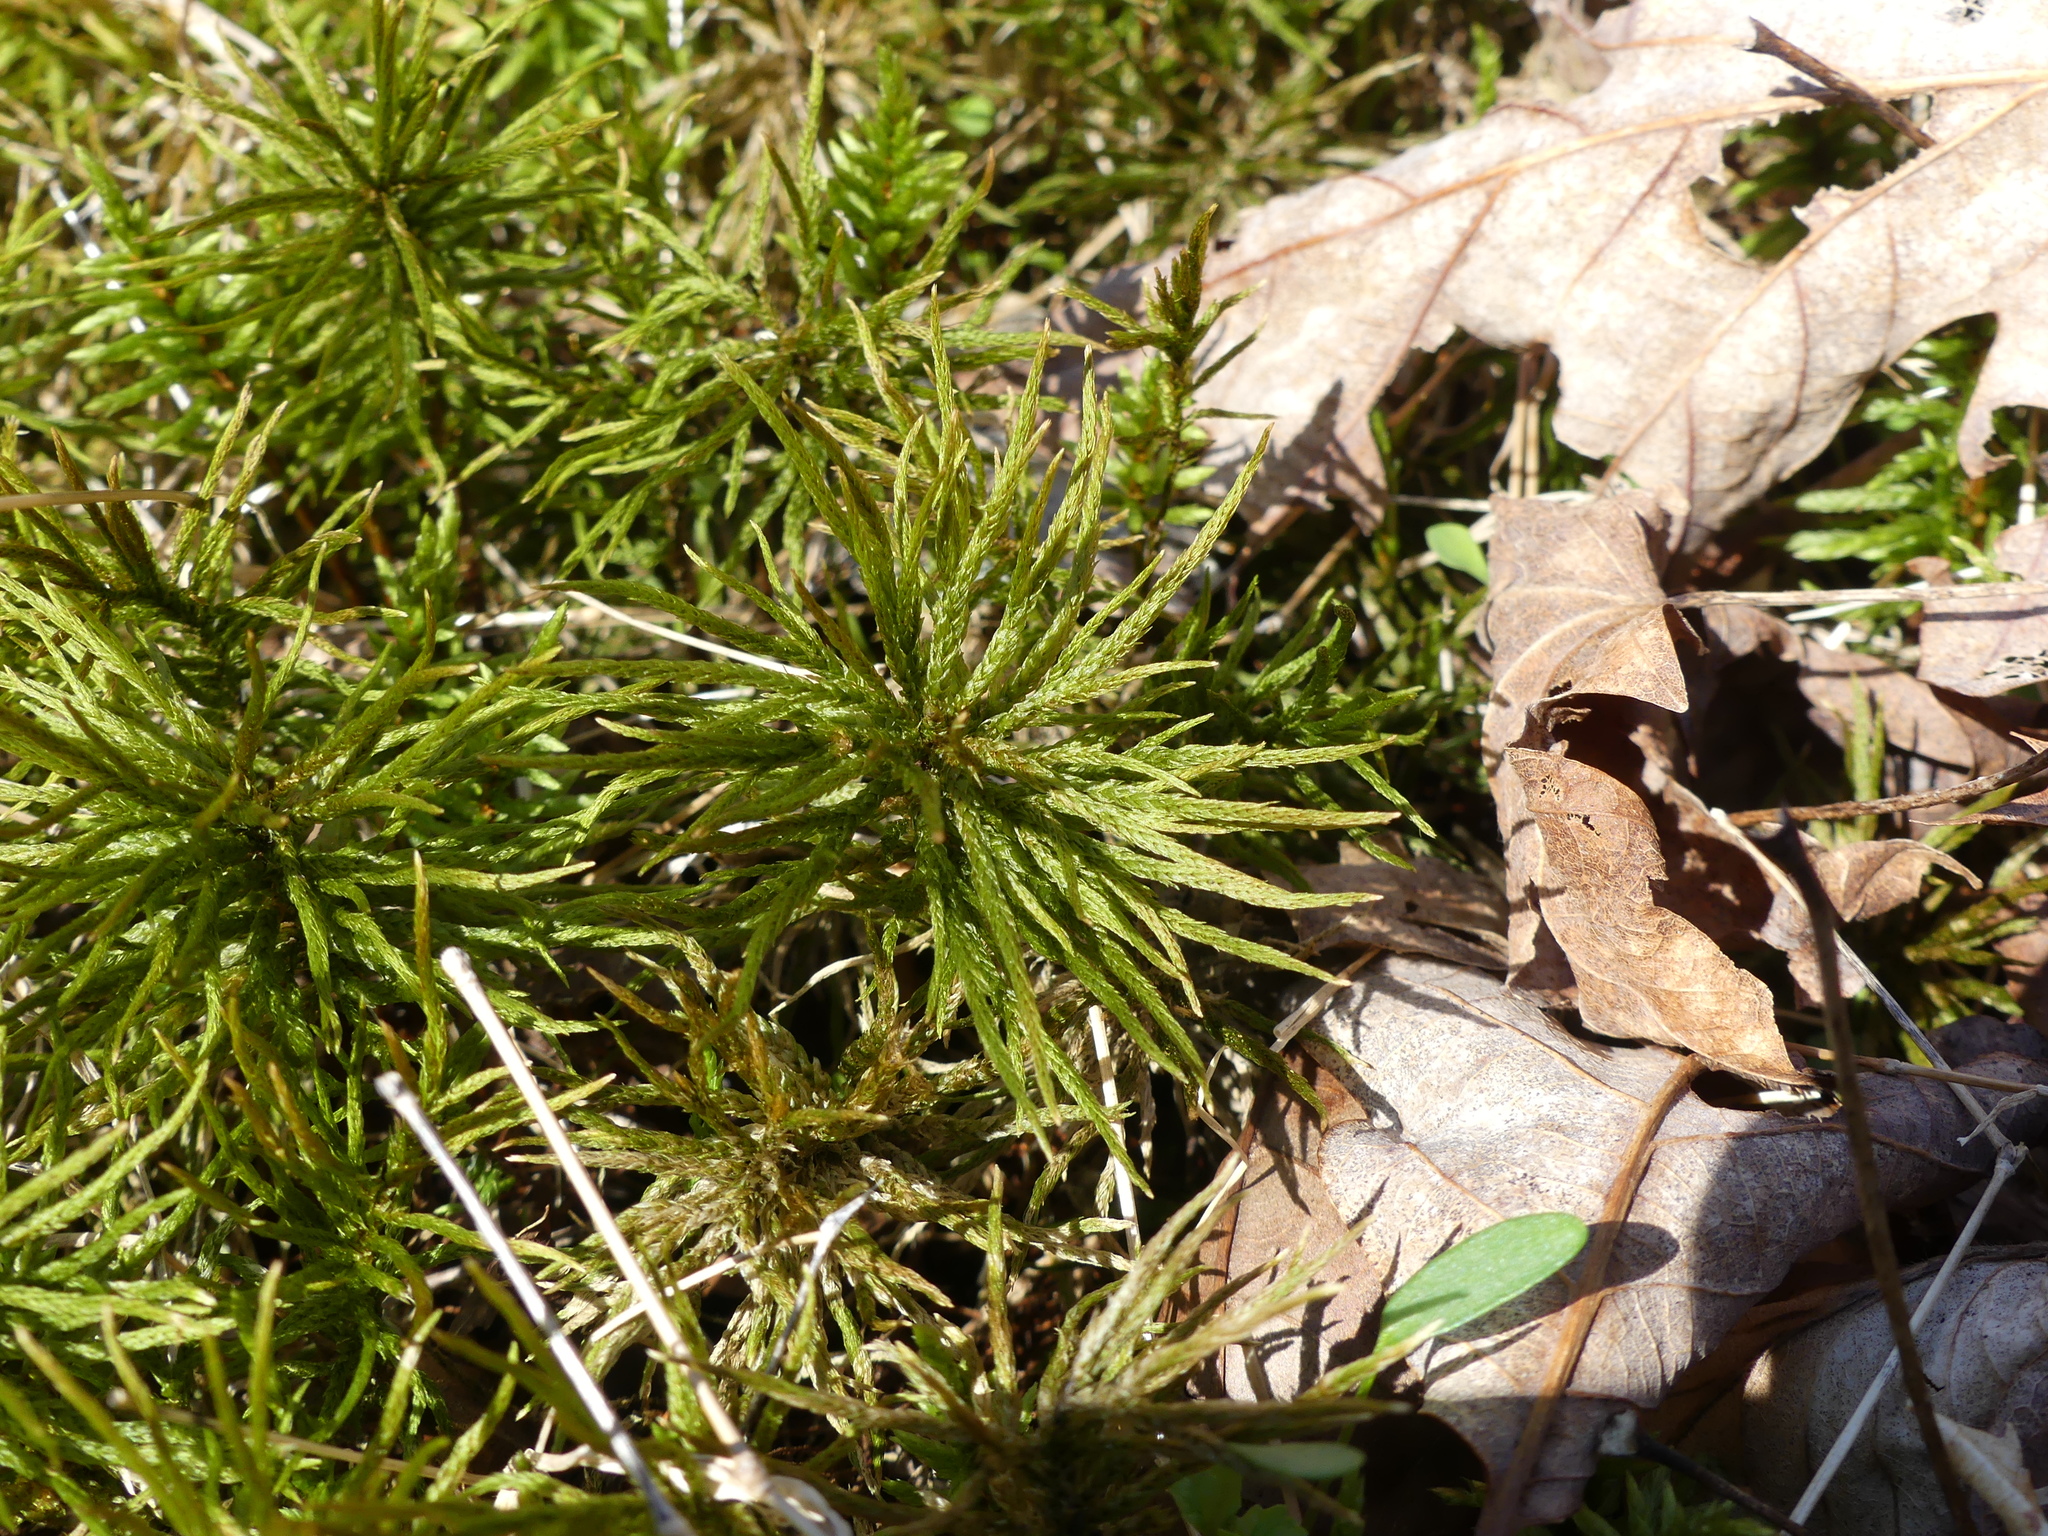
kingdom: Plantae
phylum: Bryophyta
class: Bryopsida
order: Hypnales
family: Climaciaceae
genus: Climacium
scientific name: Climacium americanum
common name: American tree moss
